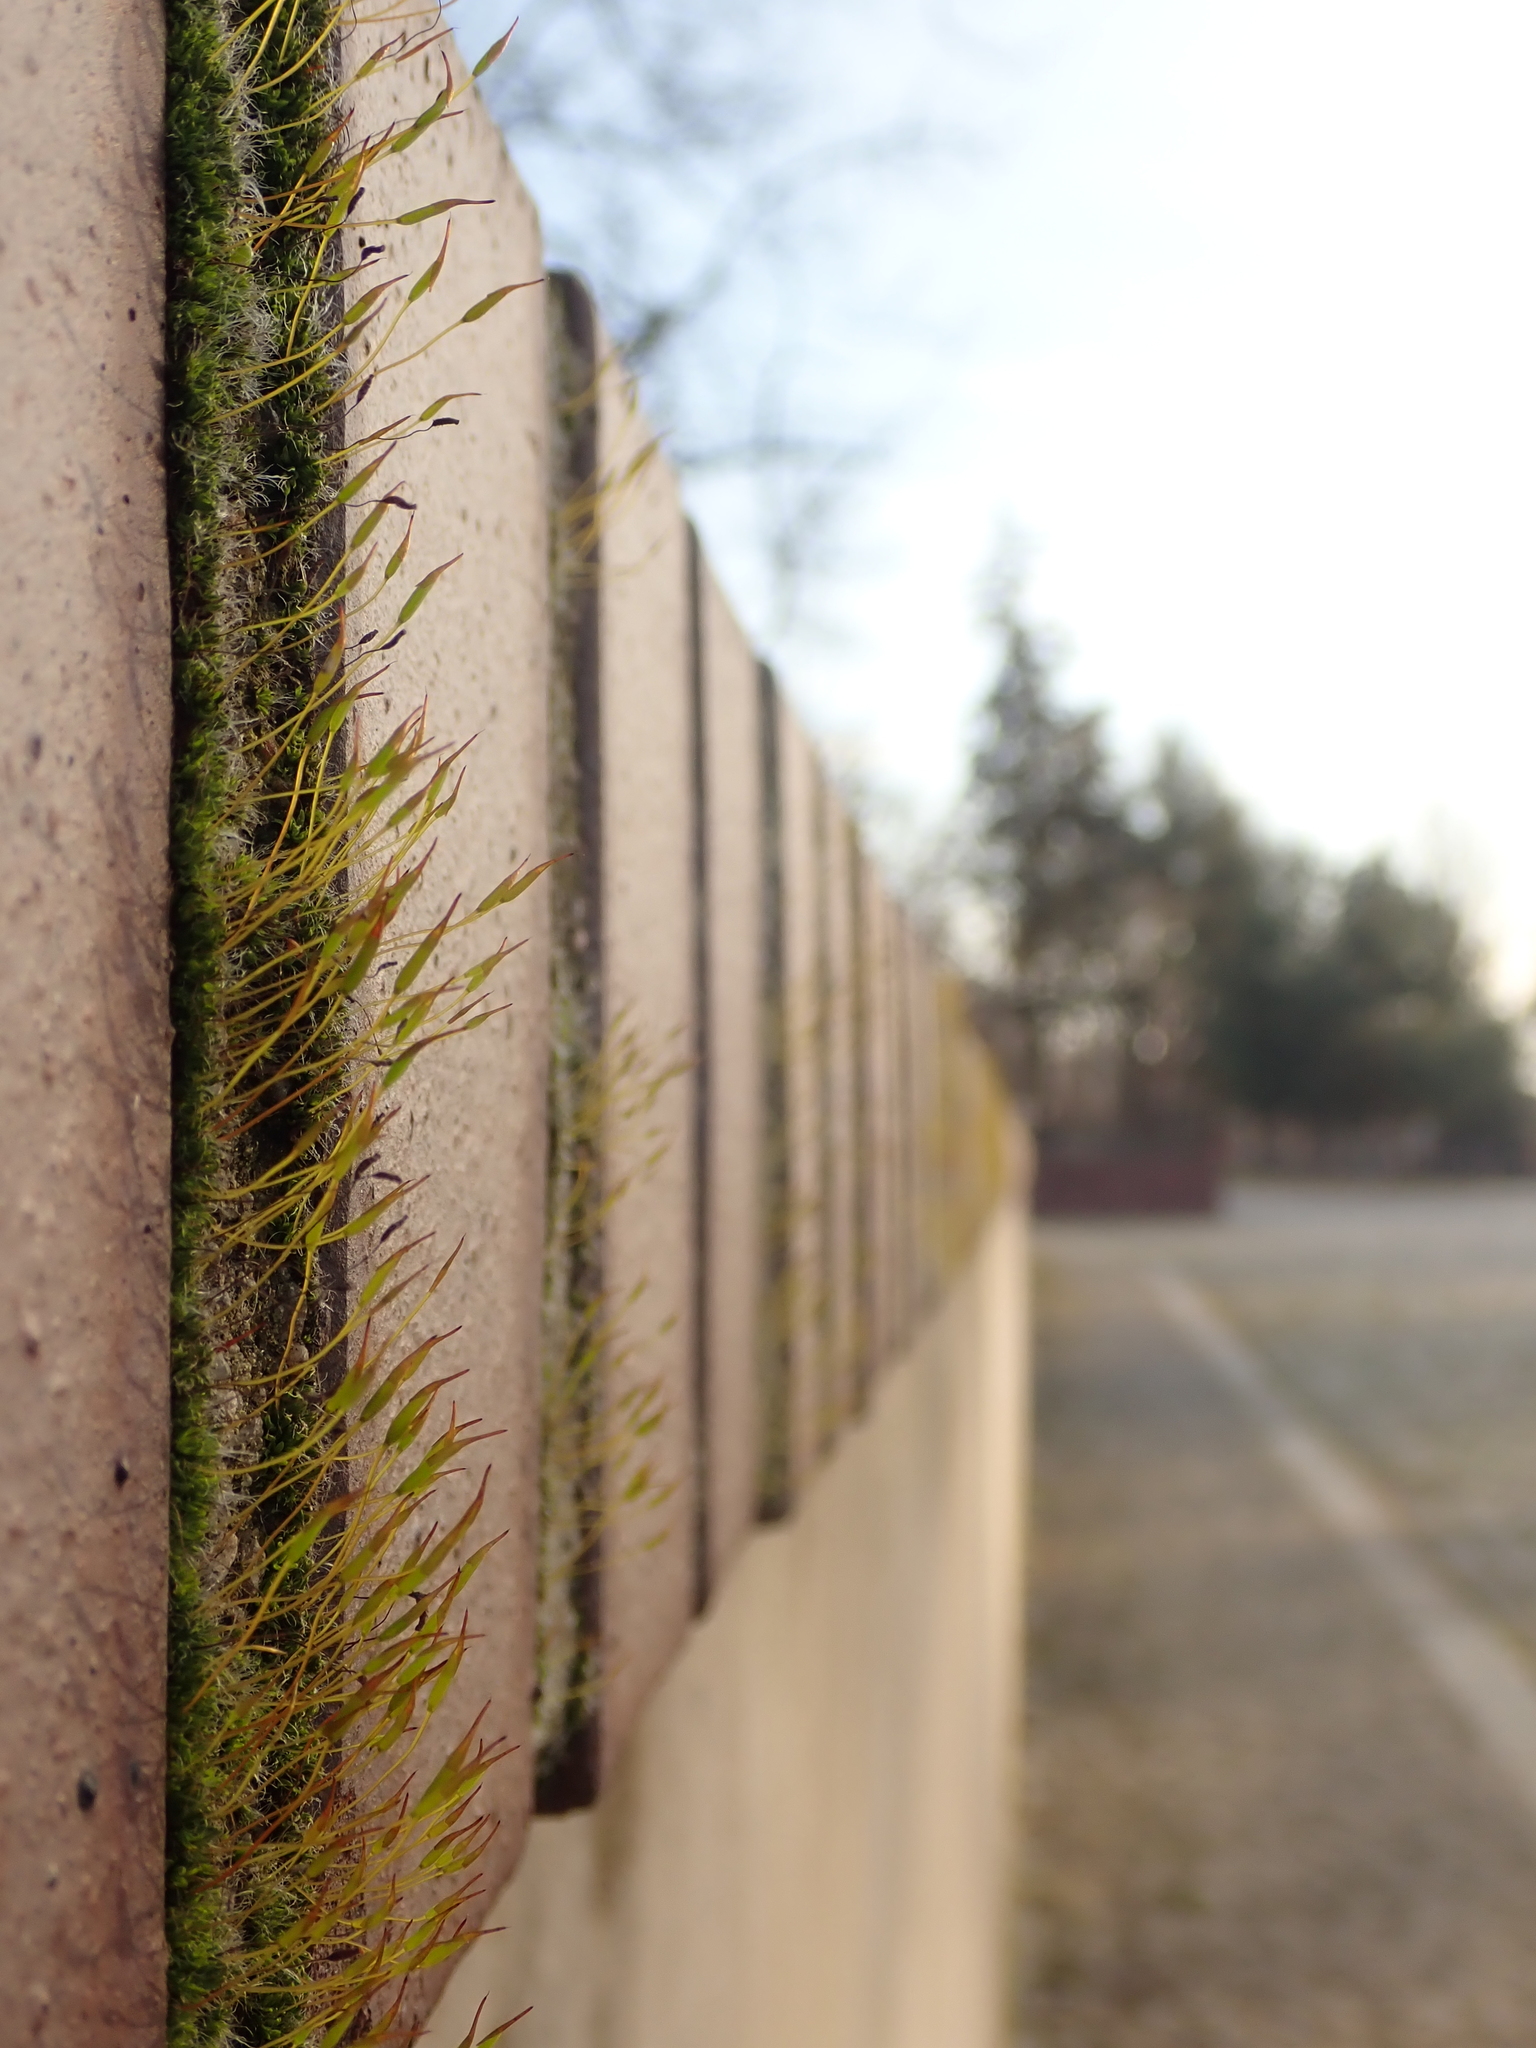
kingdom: Plantae
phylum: Bryophyta
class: Bryopsida
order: Pottiales
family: Pottiaceae
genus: Tortula
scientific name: Tortula muralis
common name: Wall screw-moss
